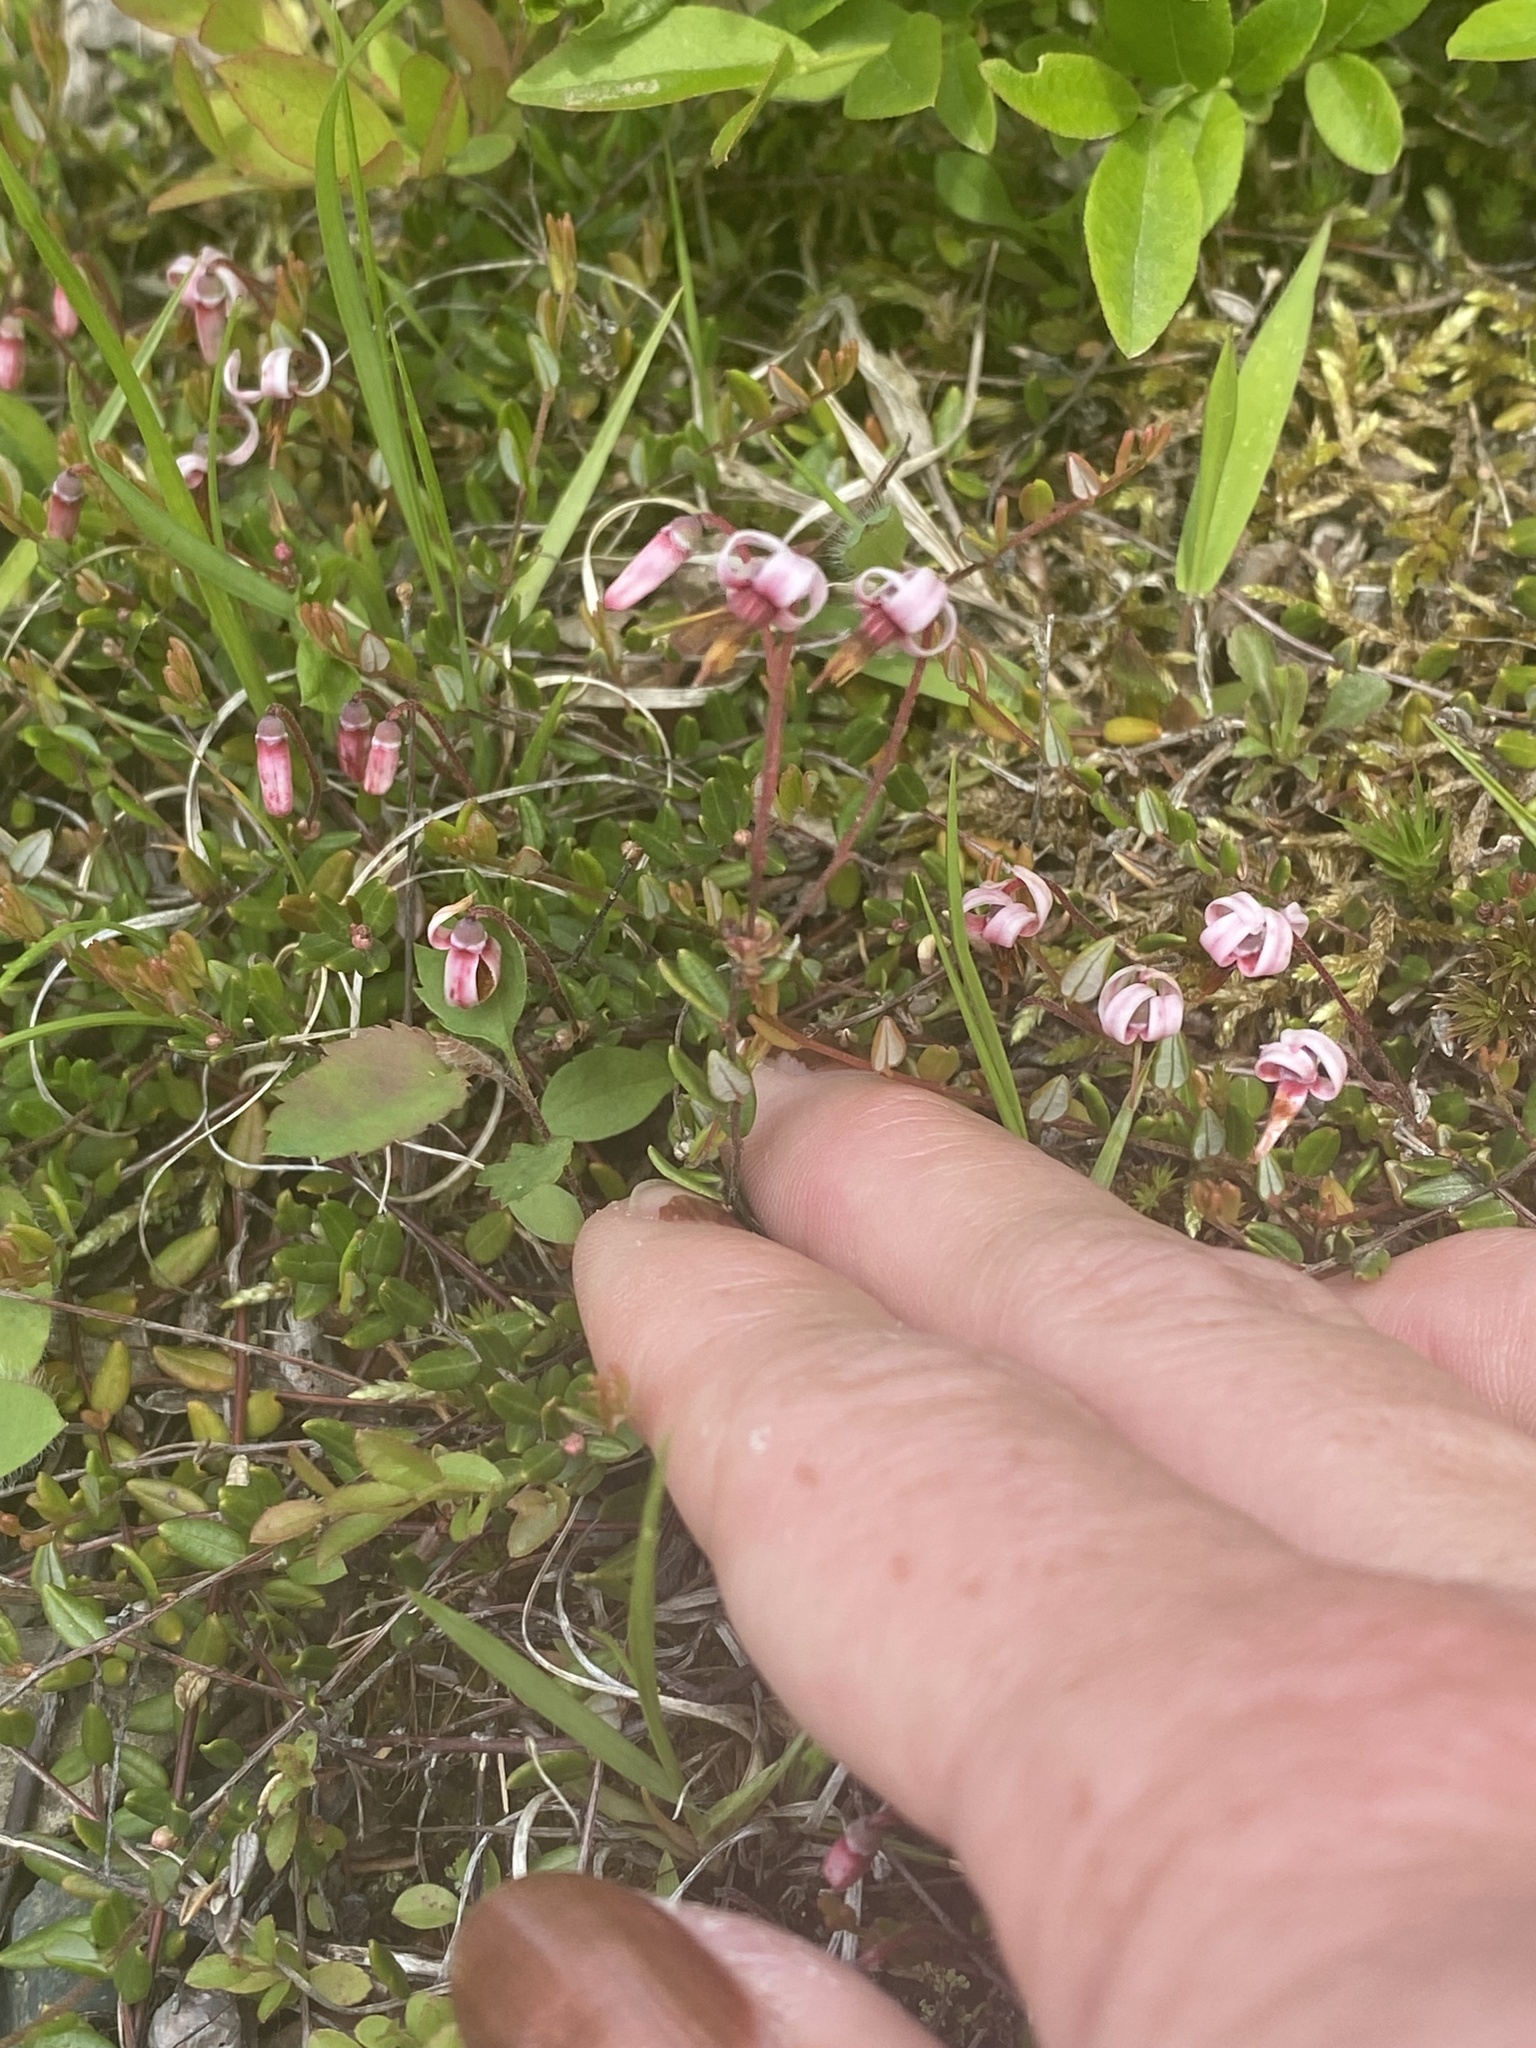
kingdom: Plantae
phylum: Tracheophyta
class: Magnoliopsida
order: Ericales
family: Ericaceae
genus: Vaccinium
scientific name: Vaccinium oxycoccos
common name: Cranberry
